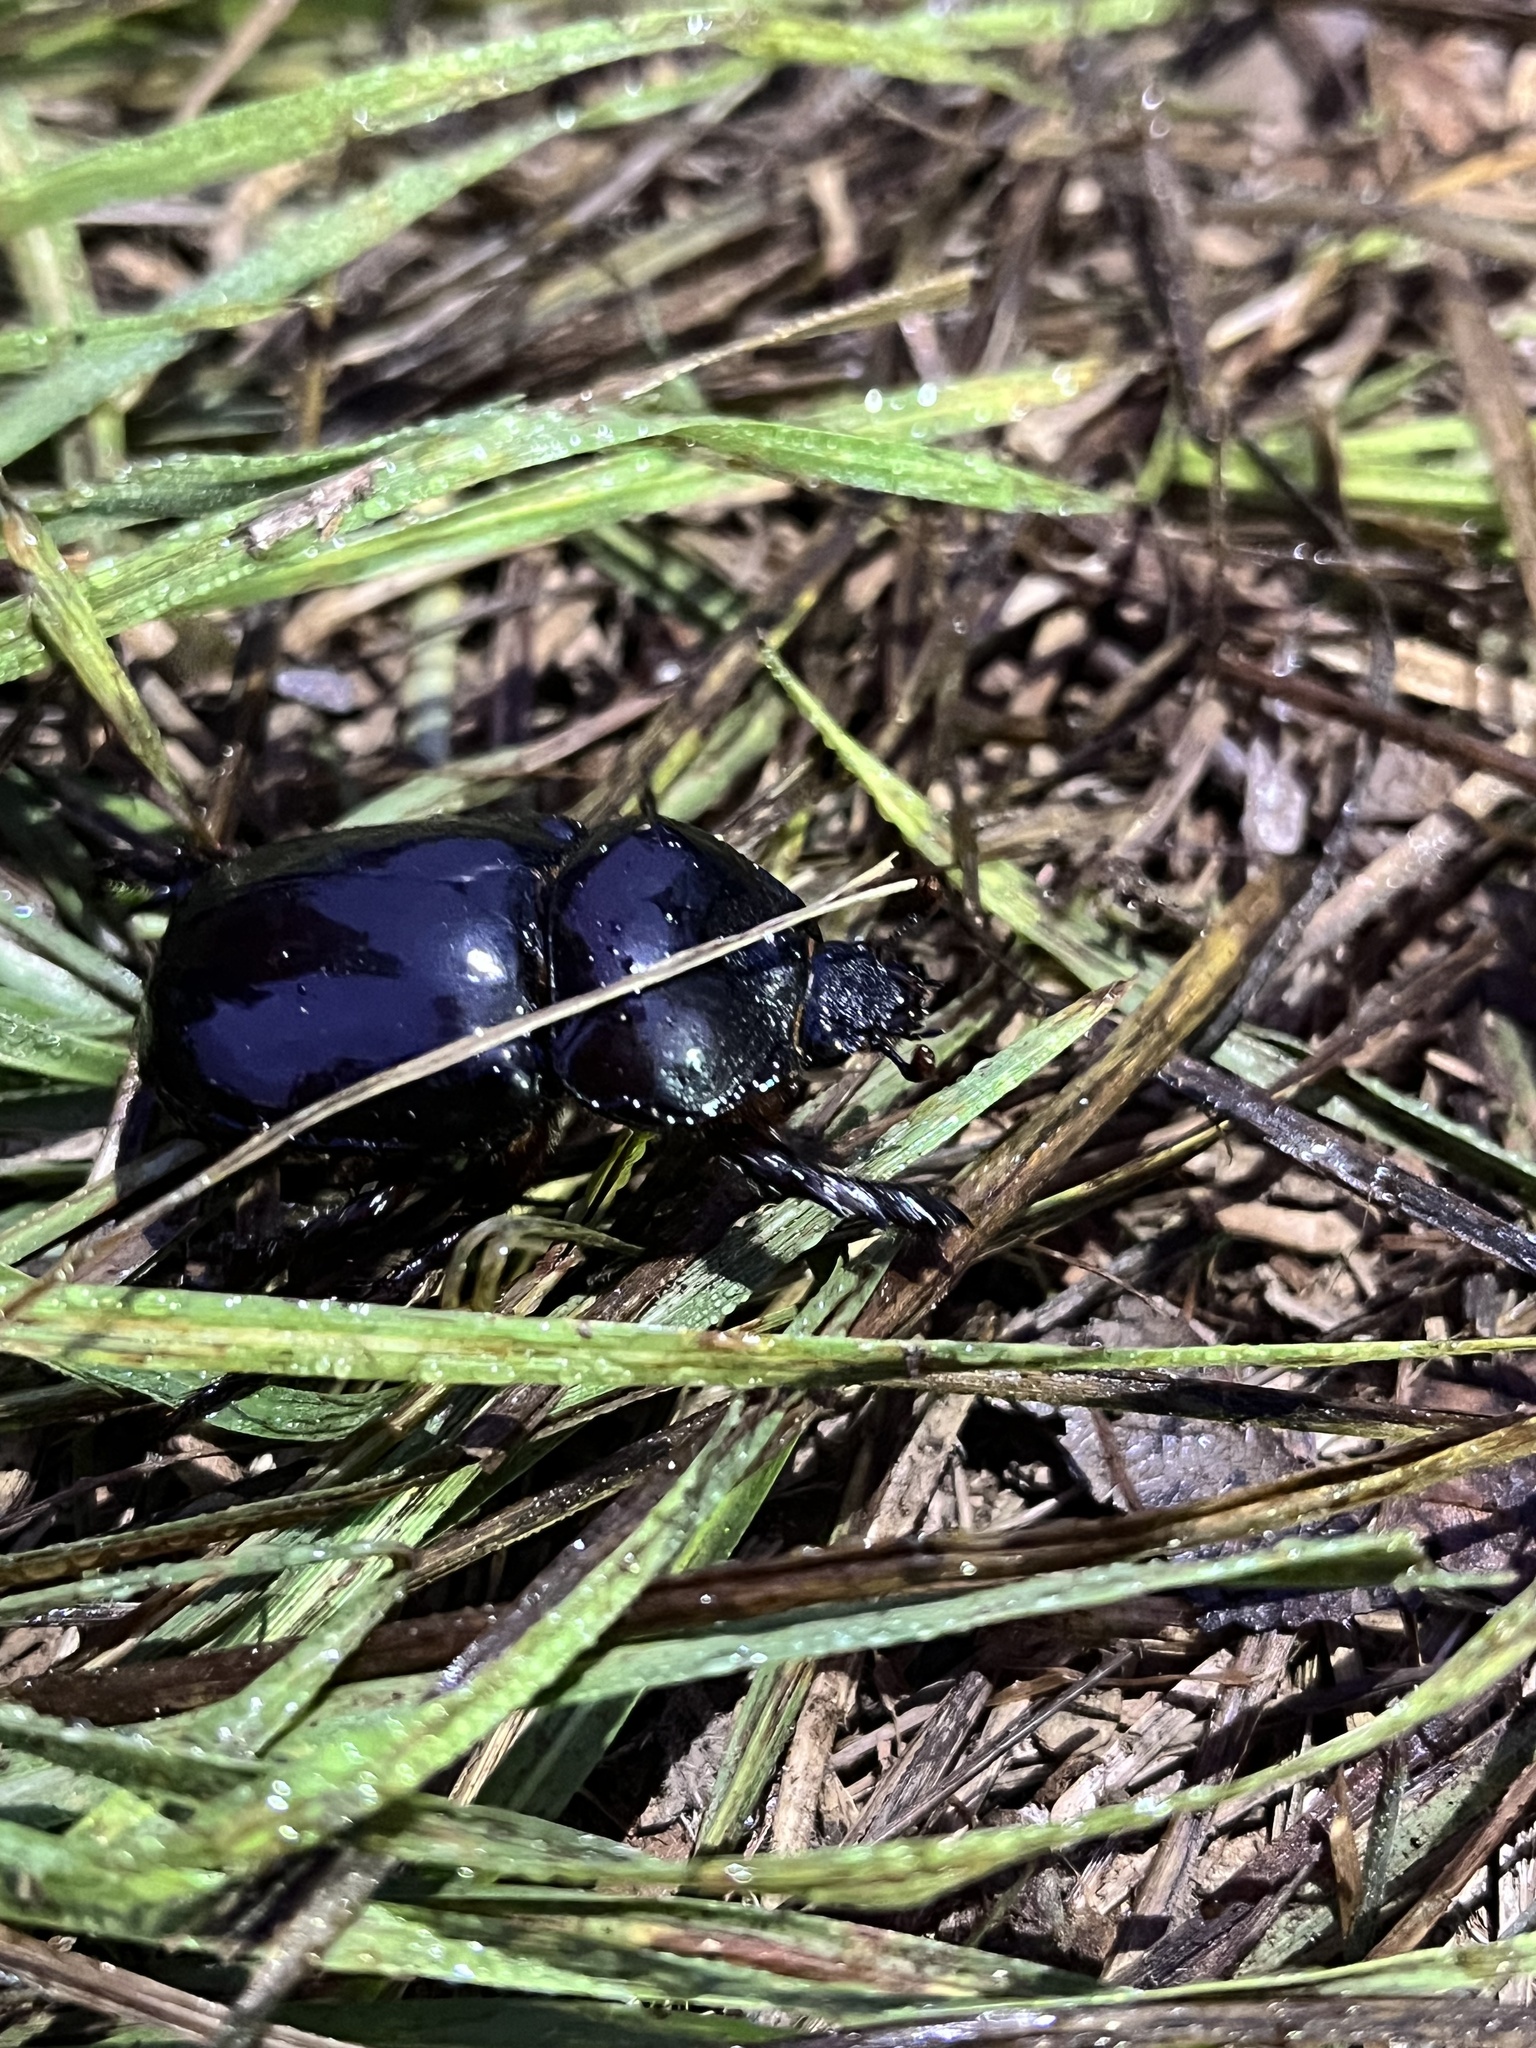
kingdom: Animalia
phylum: Arthropoda
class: Insecta
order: Coleoptera
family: Scarabaeidae
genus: Strategus
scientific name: Strategus antaeus
